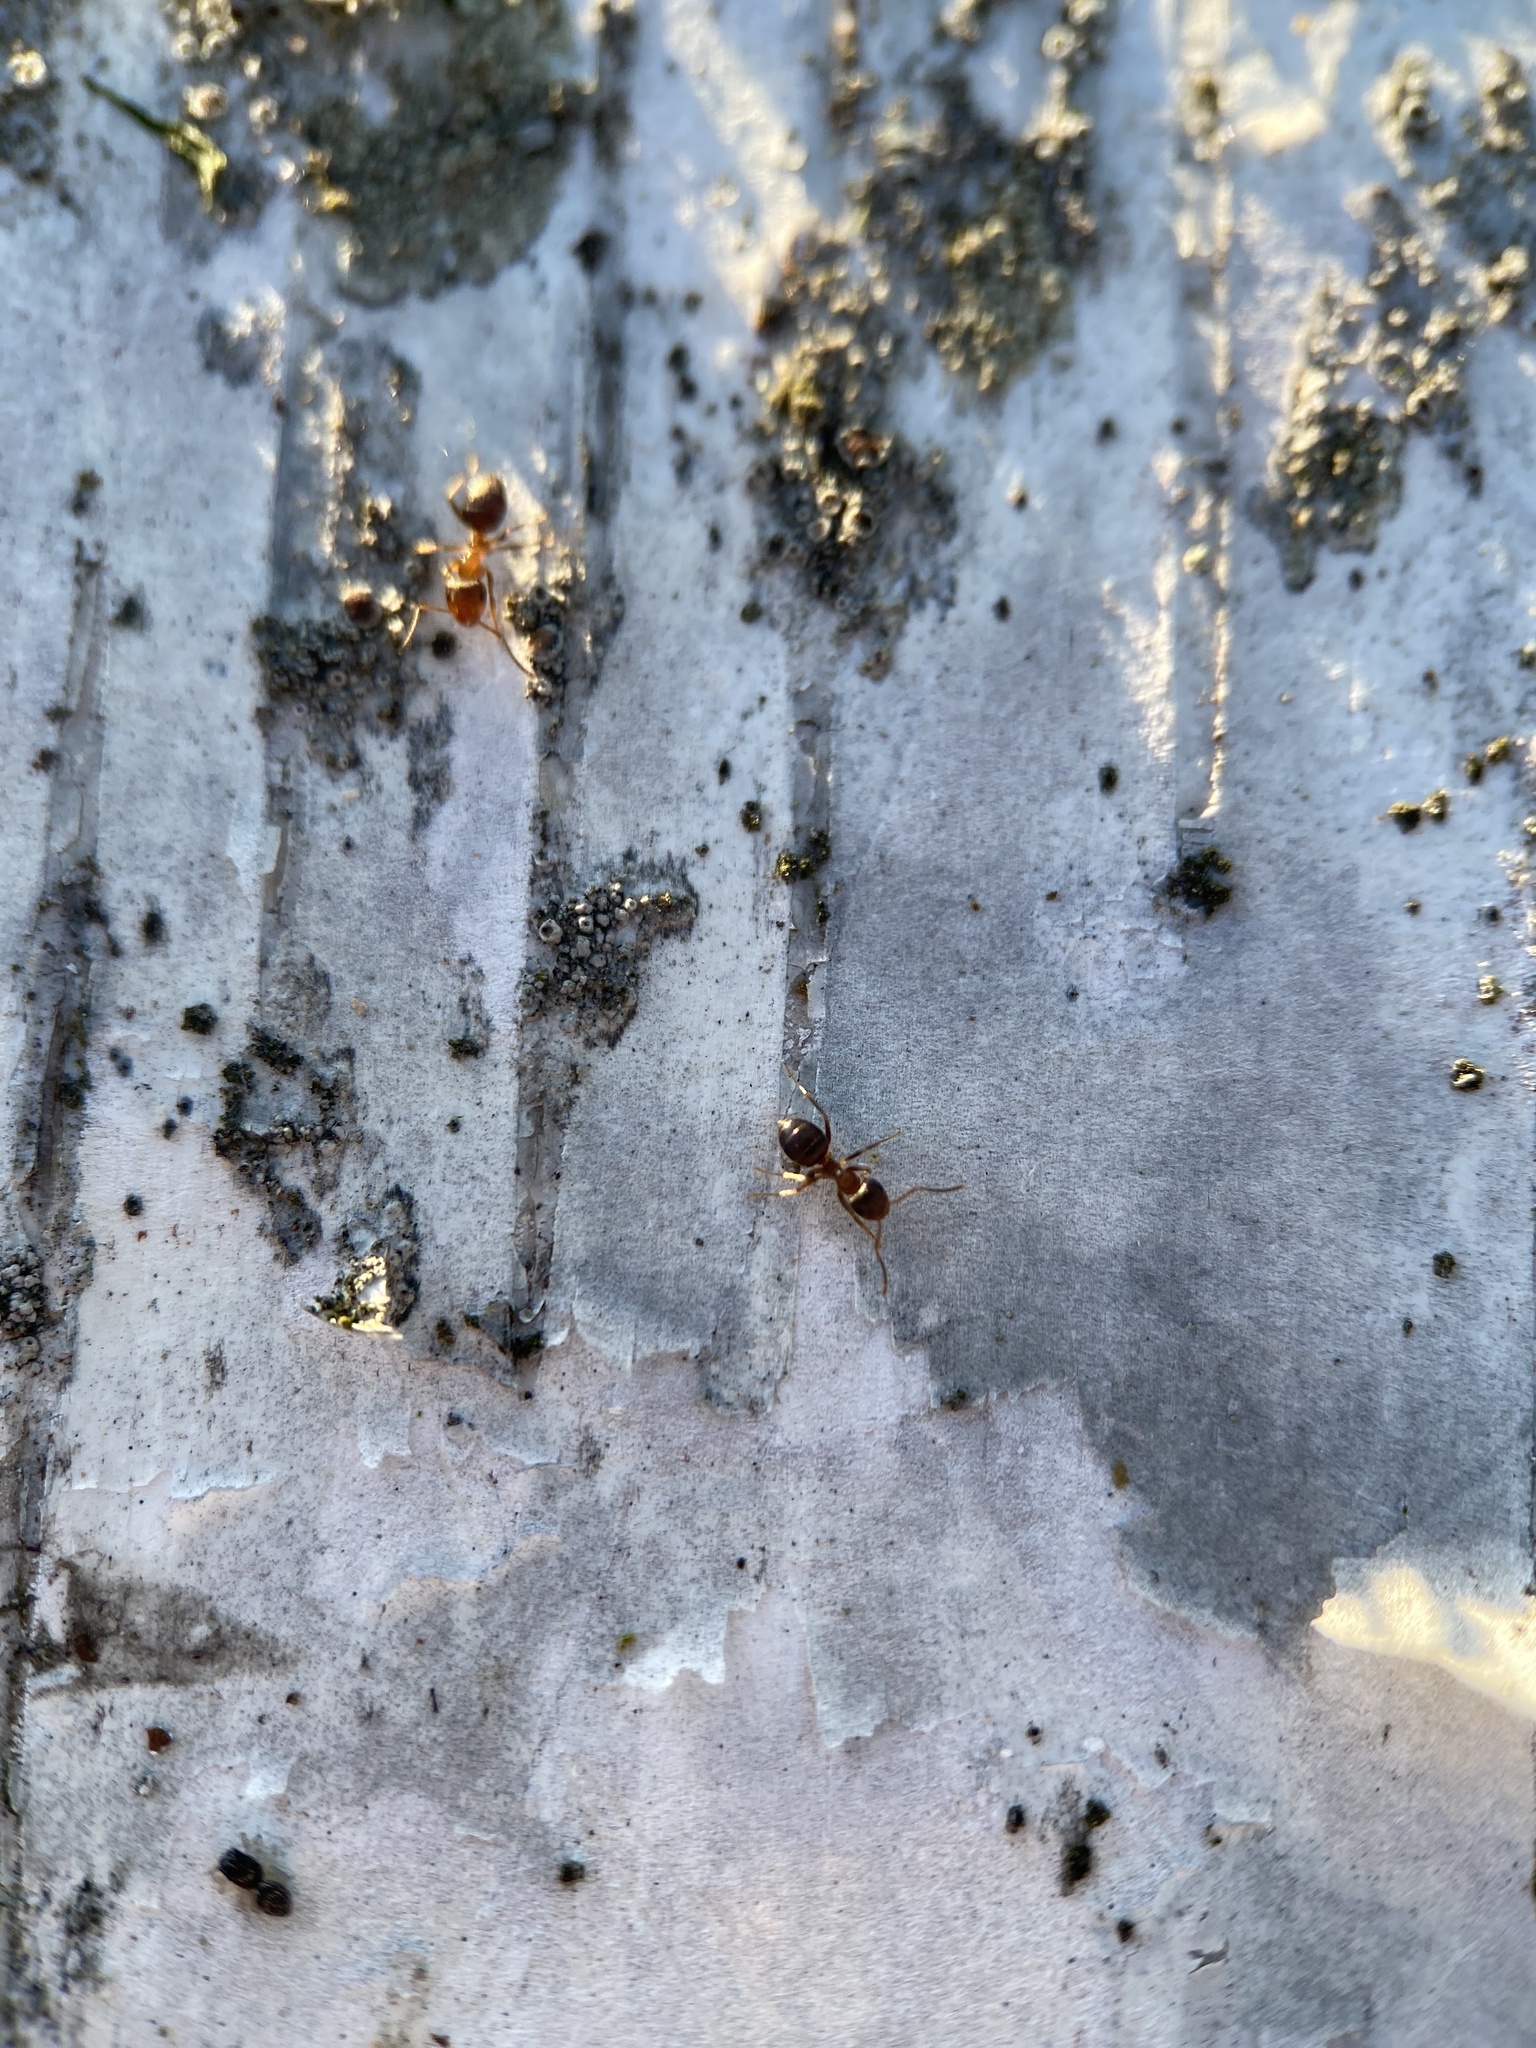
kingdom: Animalia
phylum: Arthropoda
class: Insecta
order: Hymenoptera
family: Formicidae
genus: Lasius
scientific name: Lasius brunneus
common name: Brown ant
